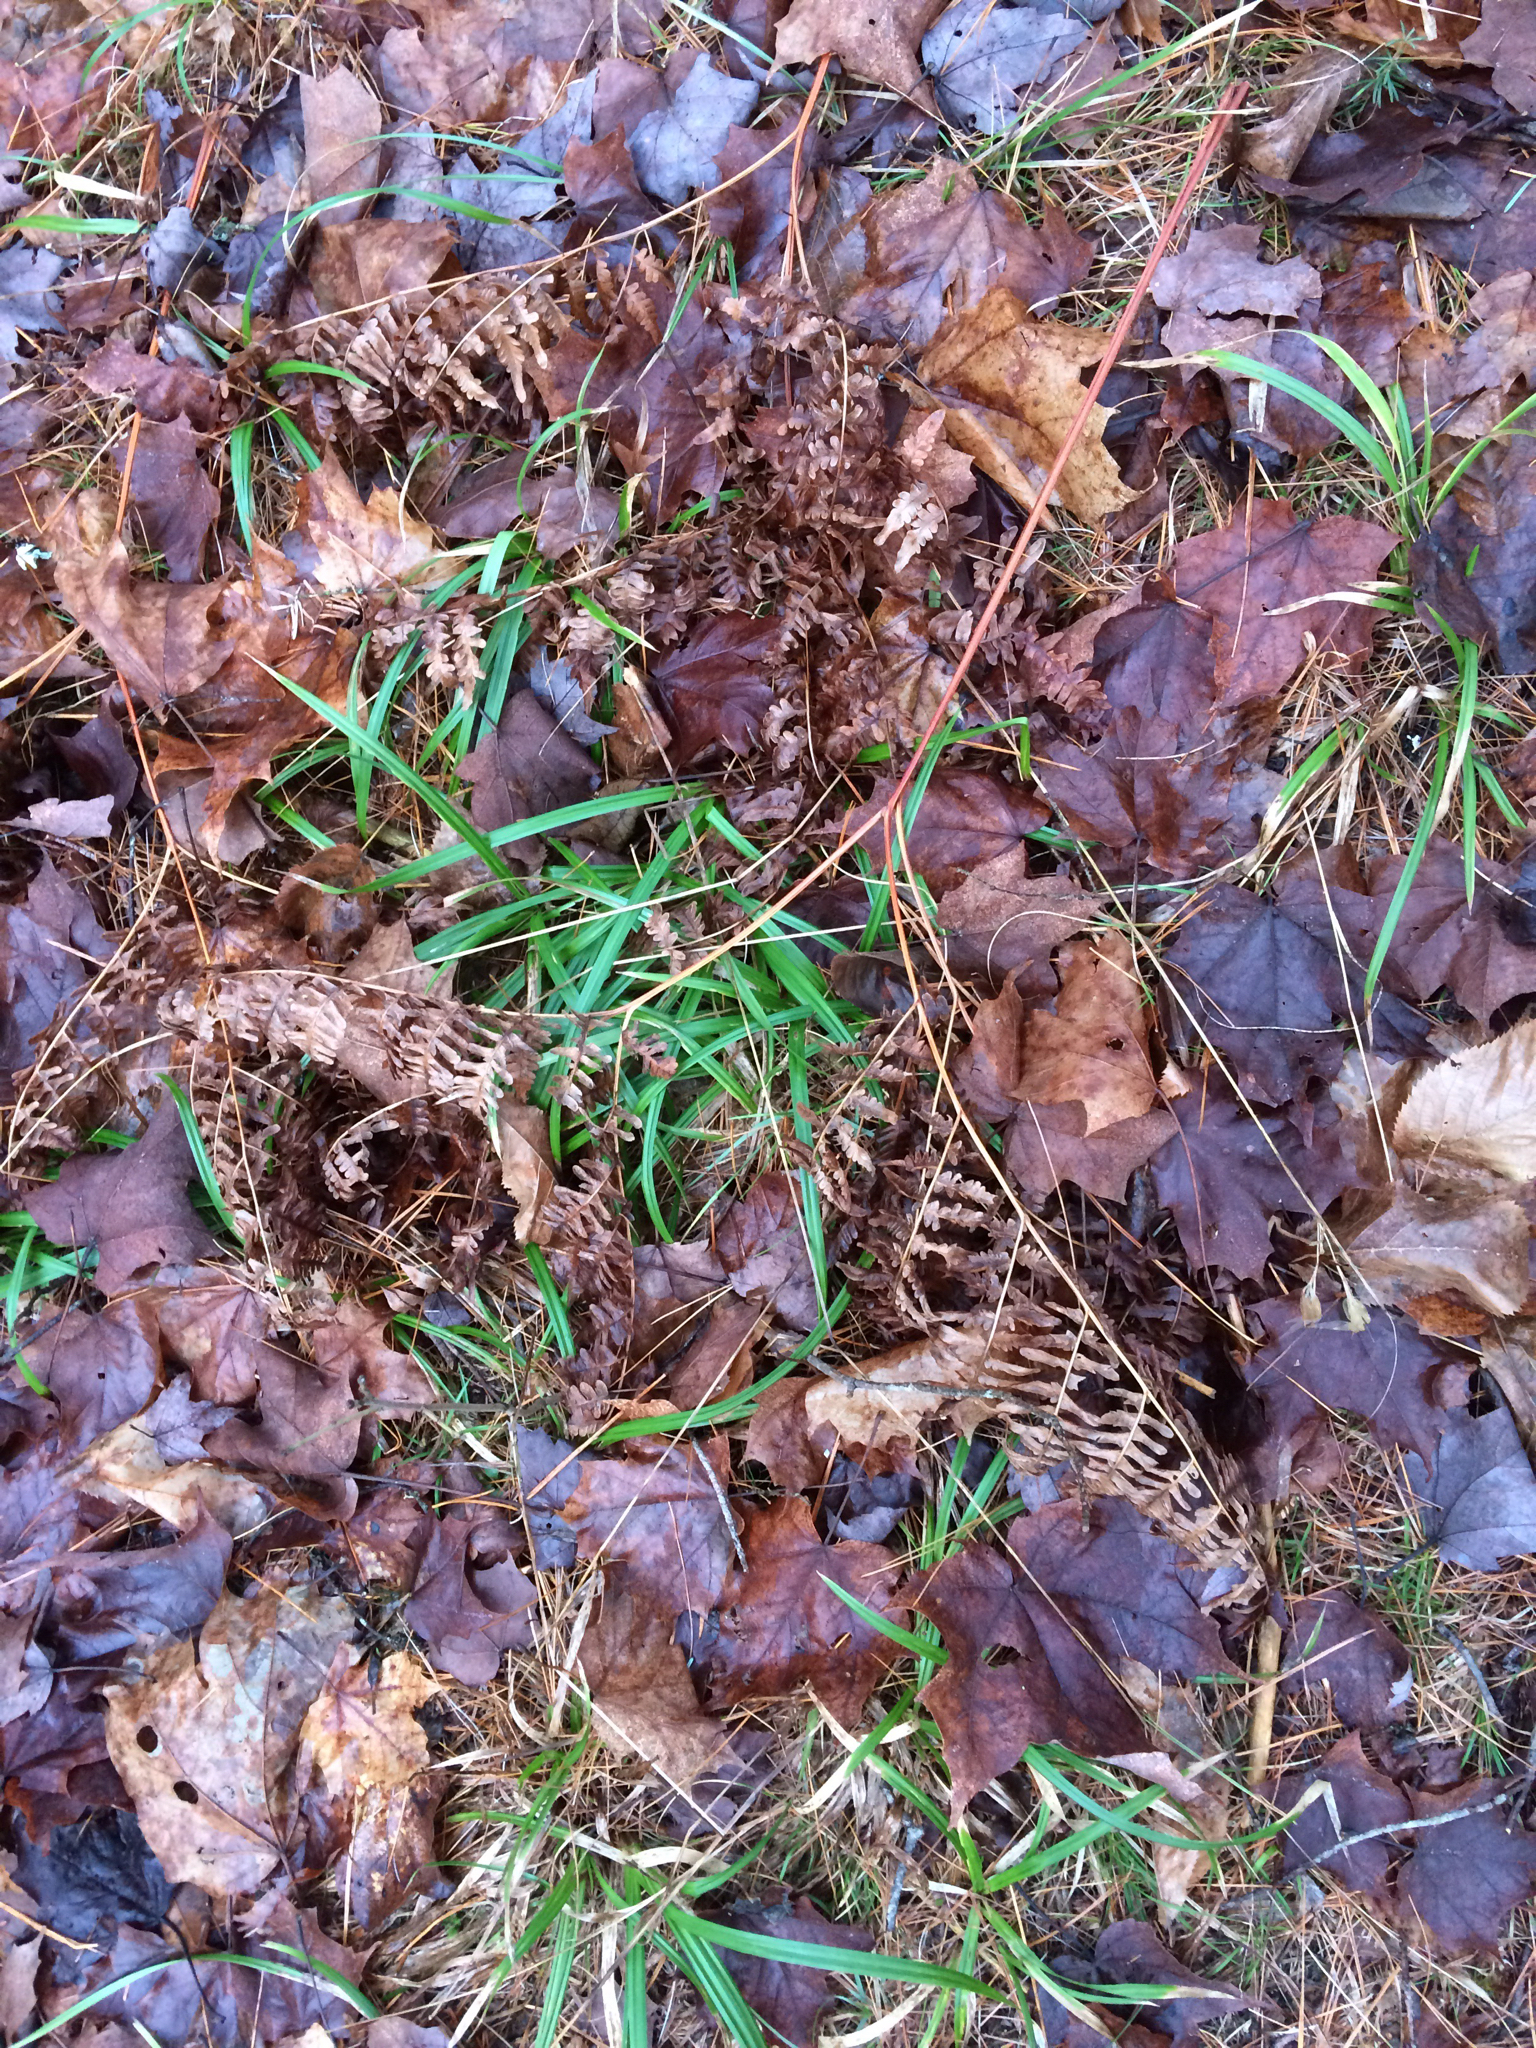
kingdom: Plantae
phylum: Tracheophyta
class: Polypodiopsida
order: Polypodiales
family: Dennstaedtiaceae
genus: Pteridium
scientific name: Pteridium aquilinum
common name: Bracken
